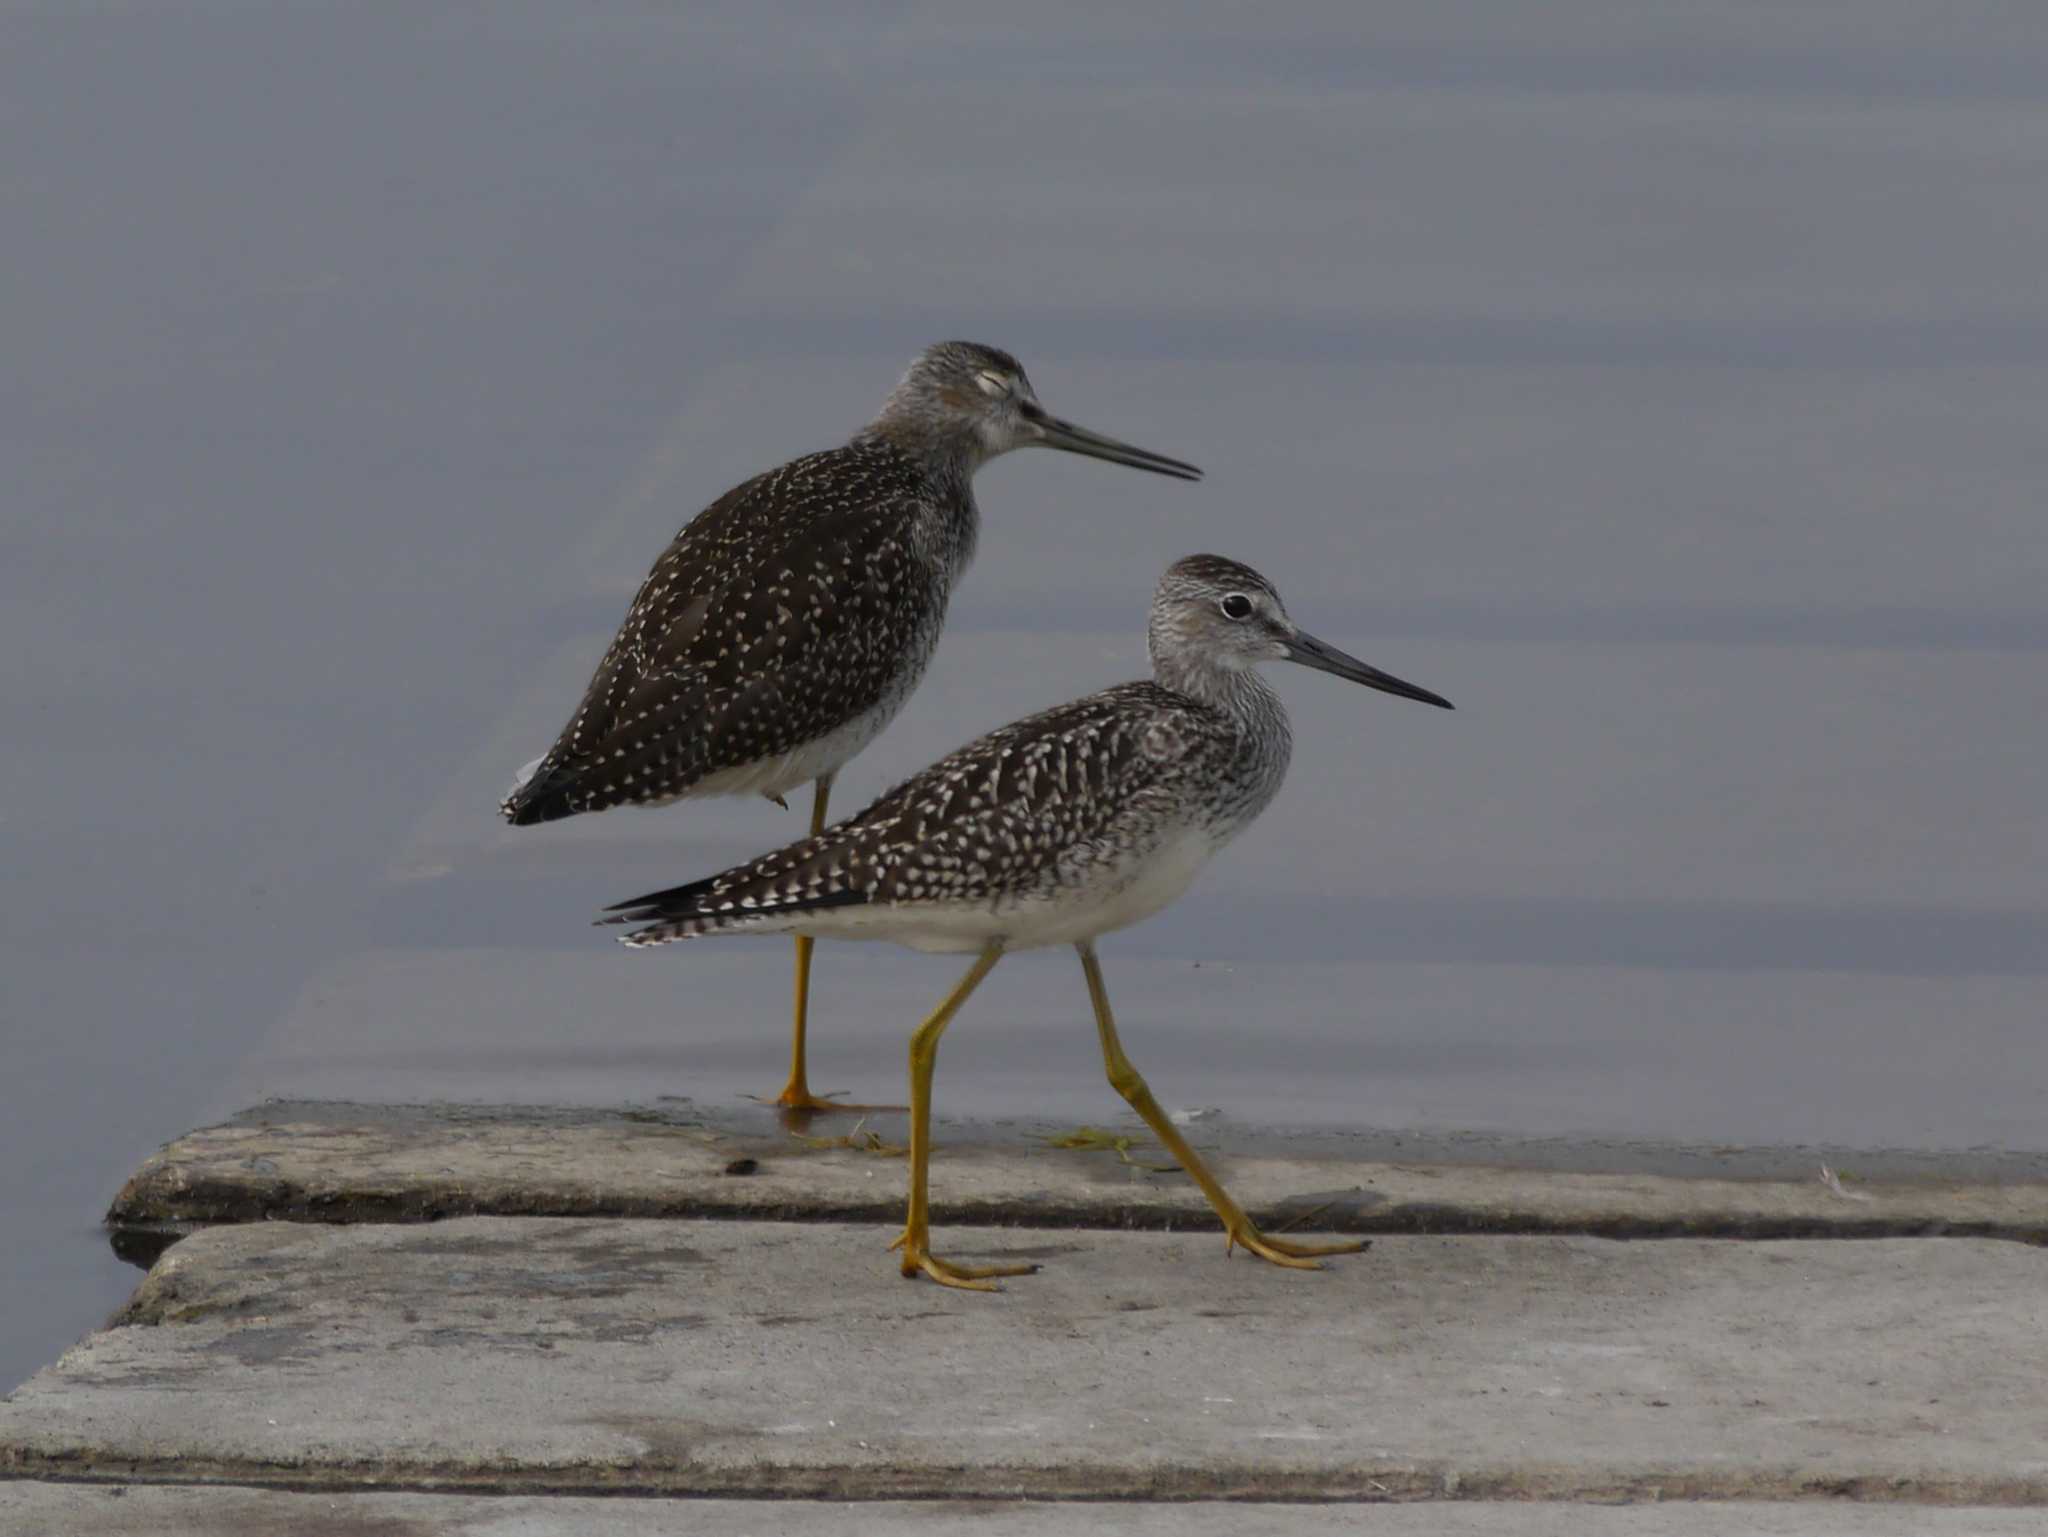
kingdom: Animalia
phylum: Chordata
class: Aves
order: Charadriiformes
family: Scolopacidae
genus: Tringa
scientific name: Tringa melanoleuca
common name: Greater yellowlegs
